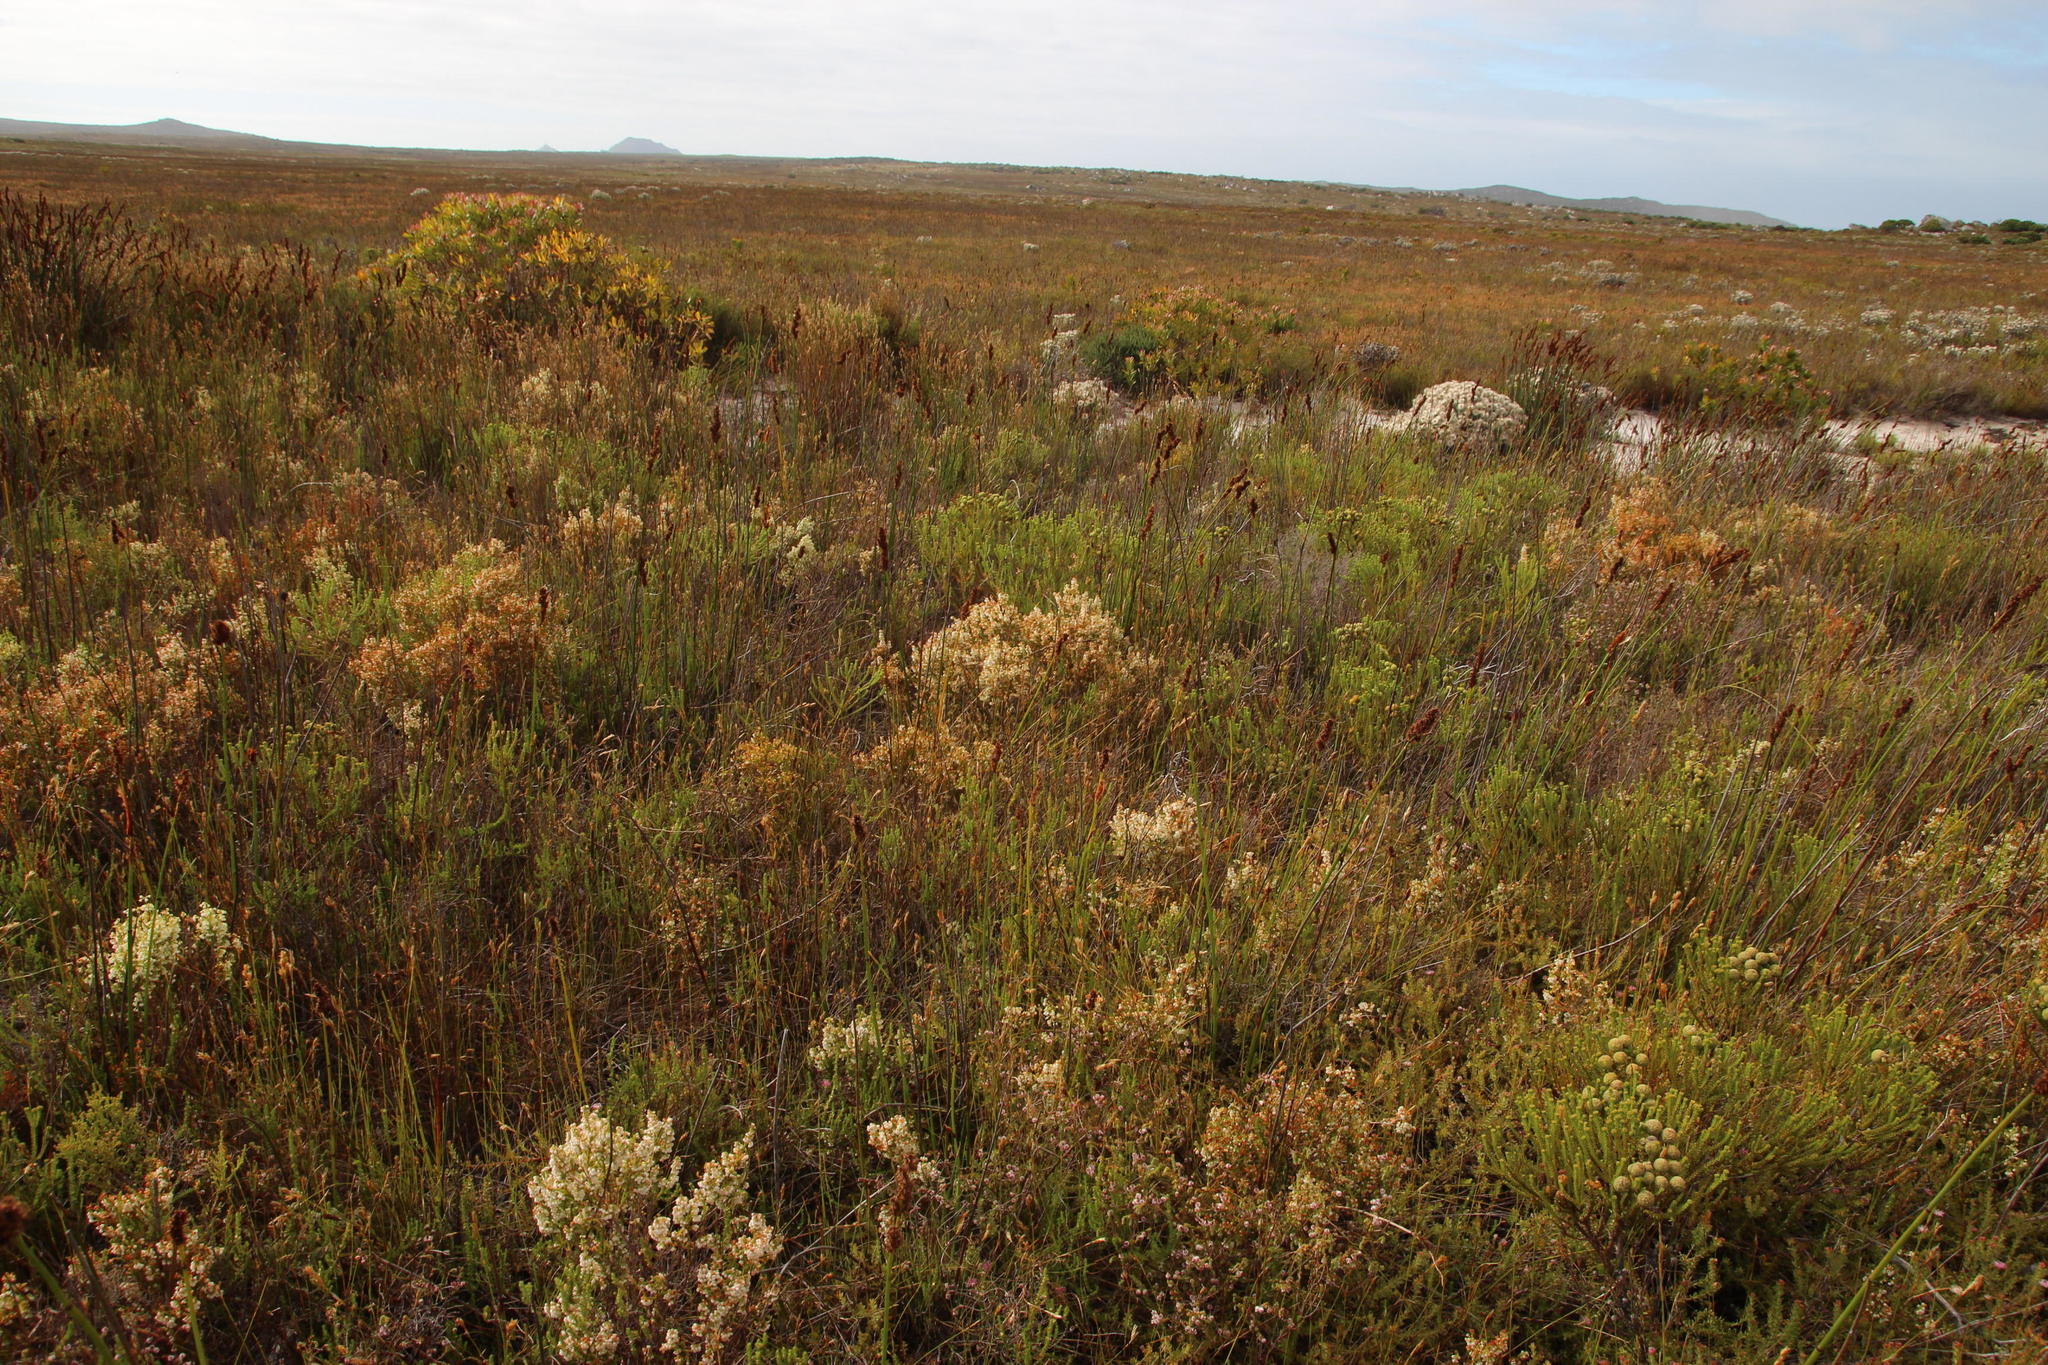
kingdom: Plantae
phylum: Tracheophyta
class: Magnoliopsida
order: Ericales
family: Ericaceae
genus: Erica
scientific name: Erica capensis
